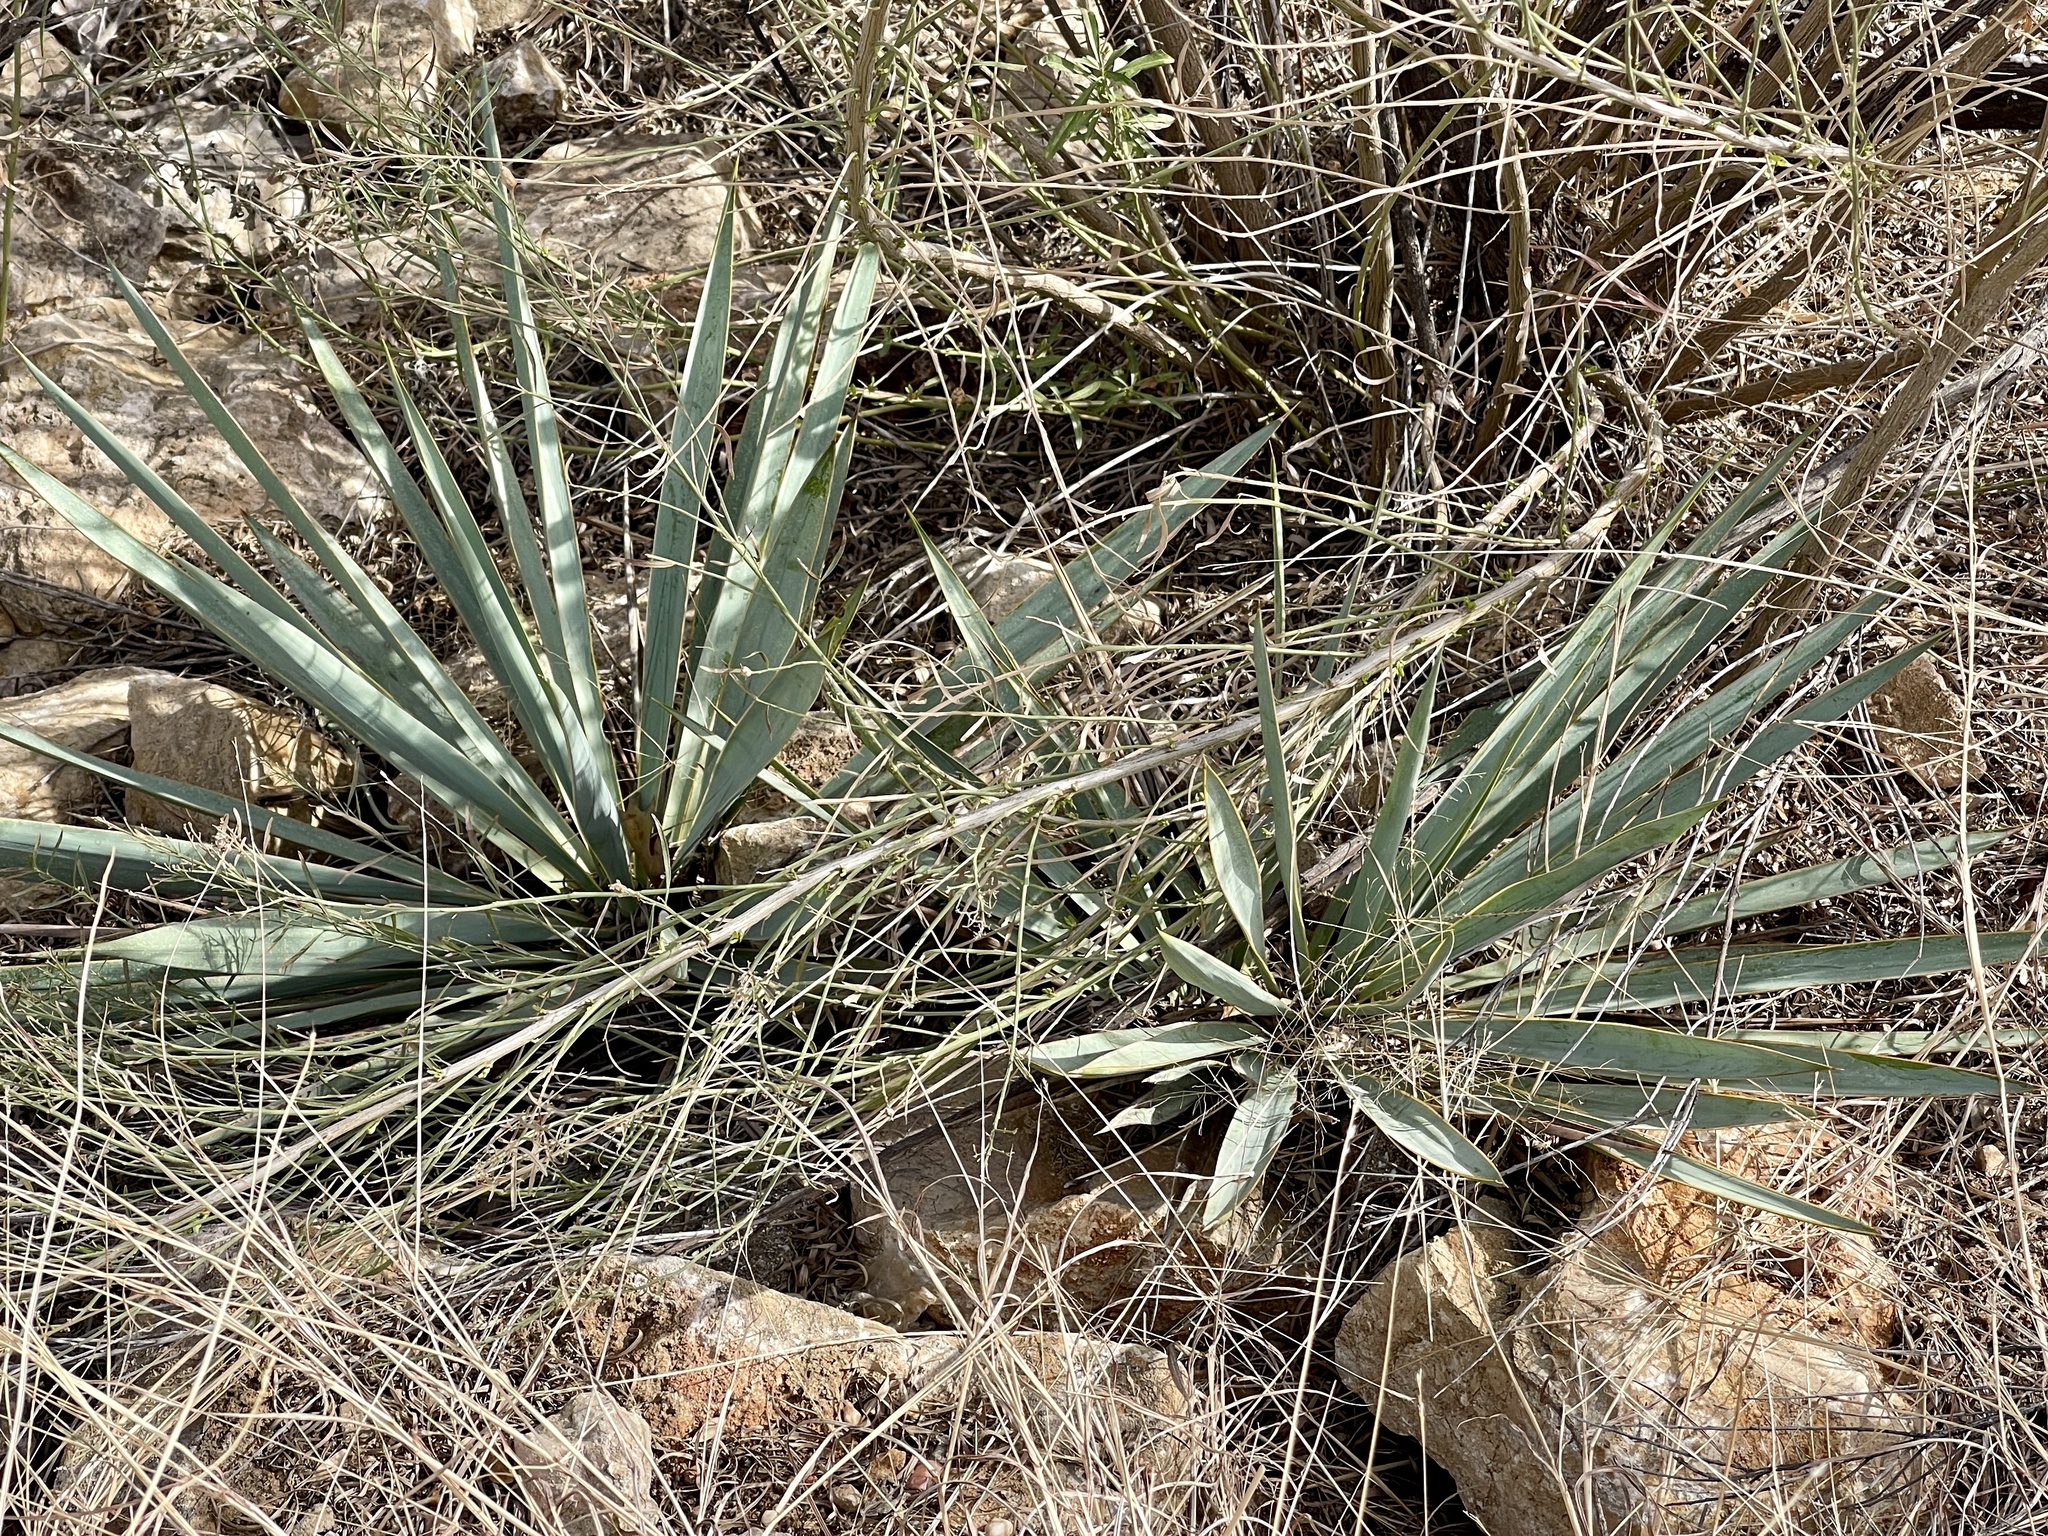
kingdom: Plantae
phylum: Tracheophyta
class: Liliopsida
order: Asparagales
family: Asparagaceae
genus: Yucca
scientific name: Yucca pallida
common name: Pale leaf yucca
